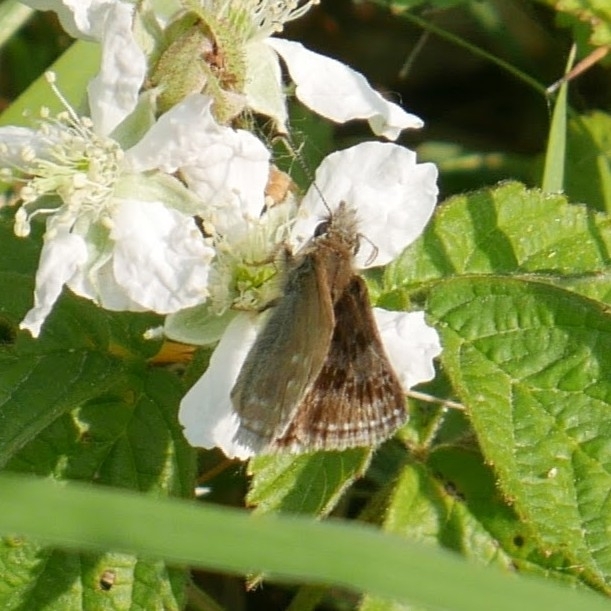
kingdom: Animalia
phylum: Arthropoda
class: Insecta
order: Lepidoptera
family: Hesperiidae
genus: Erynnis
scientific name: Erynnis tages
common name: Dingy skipper
